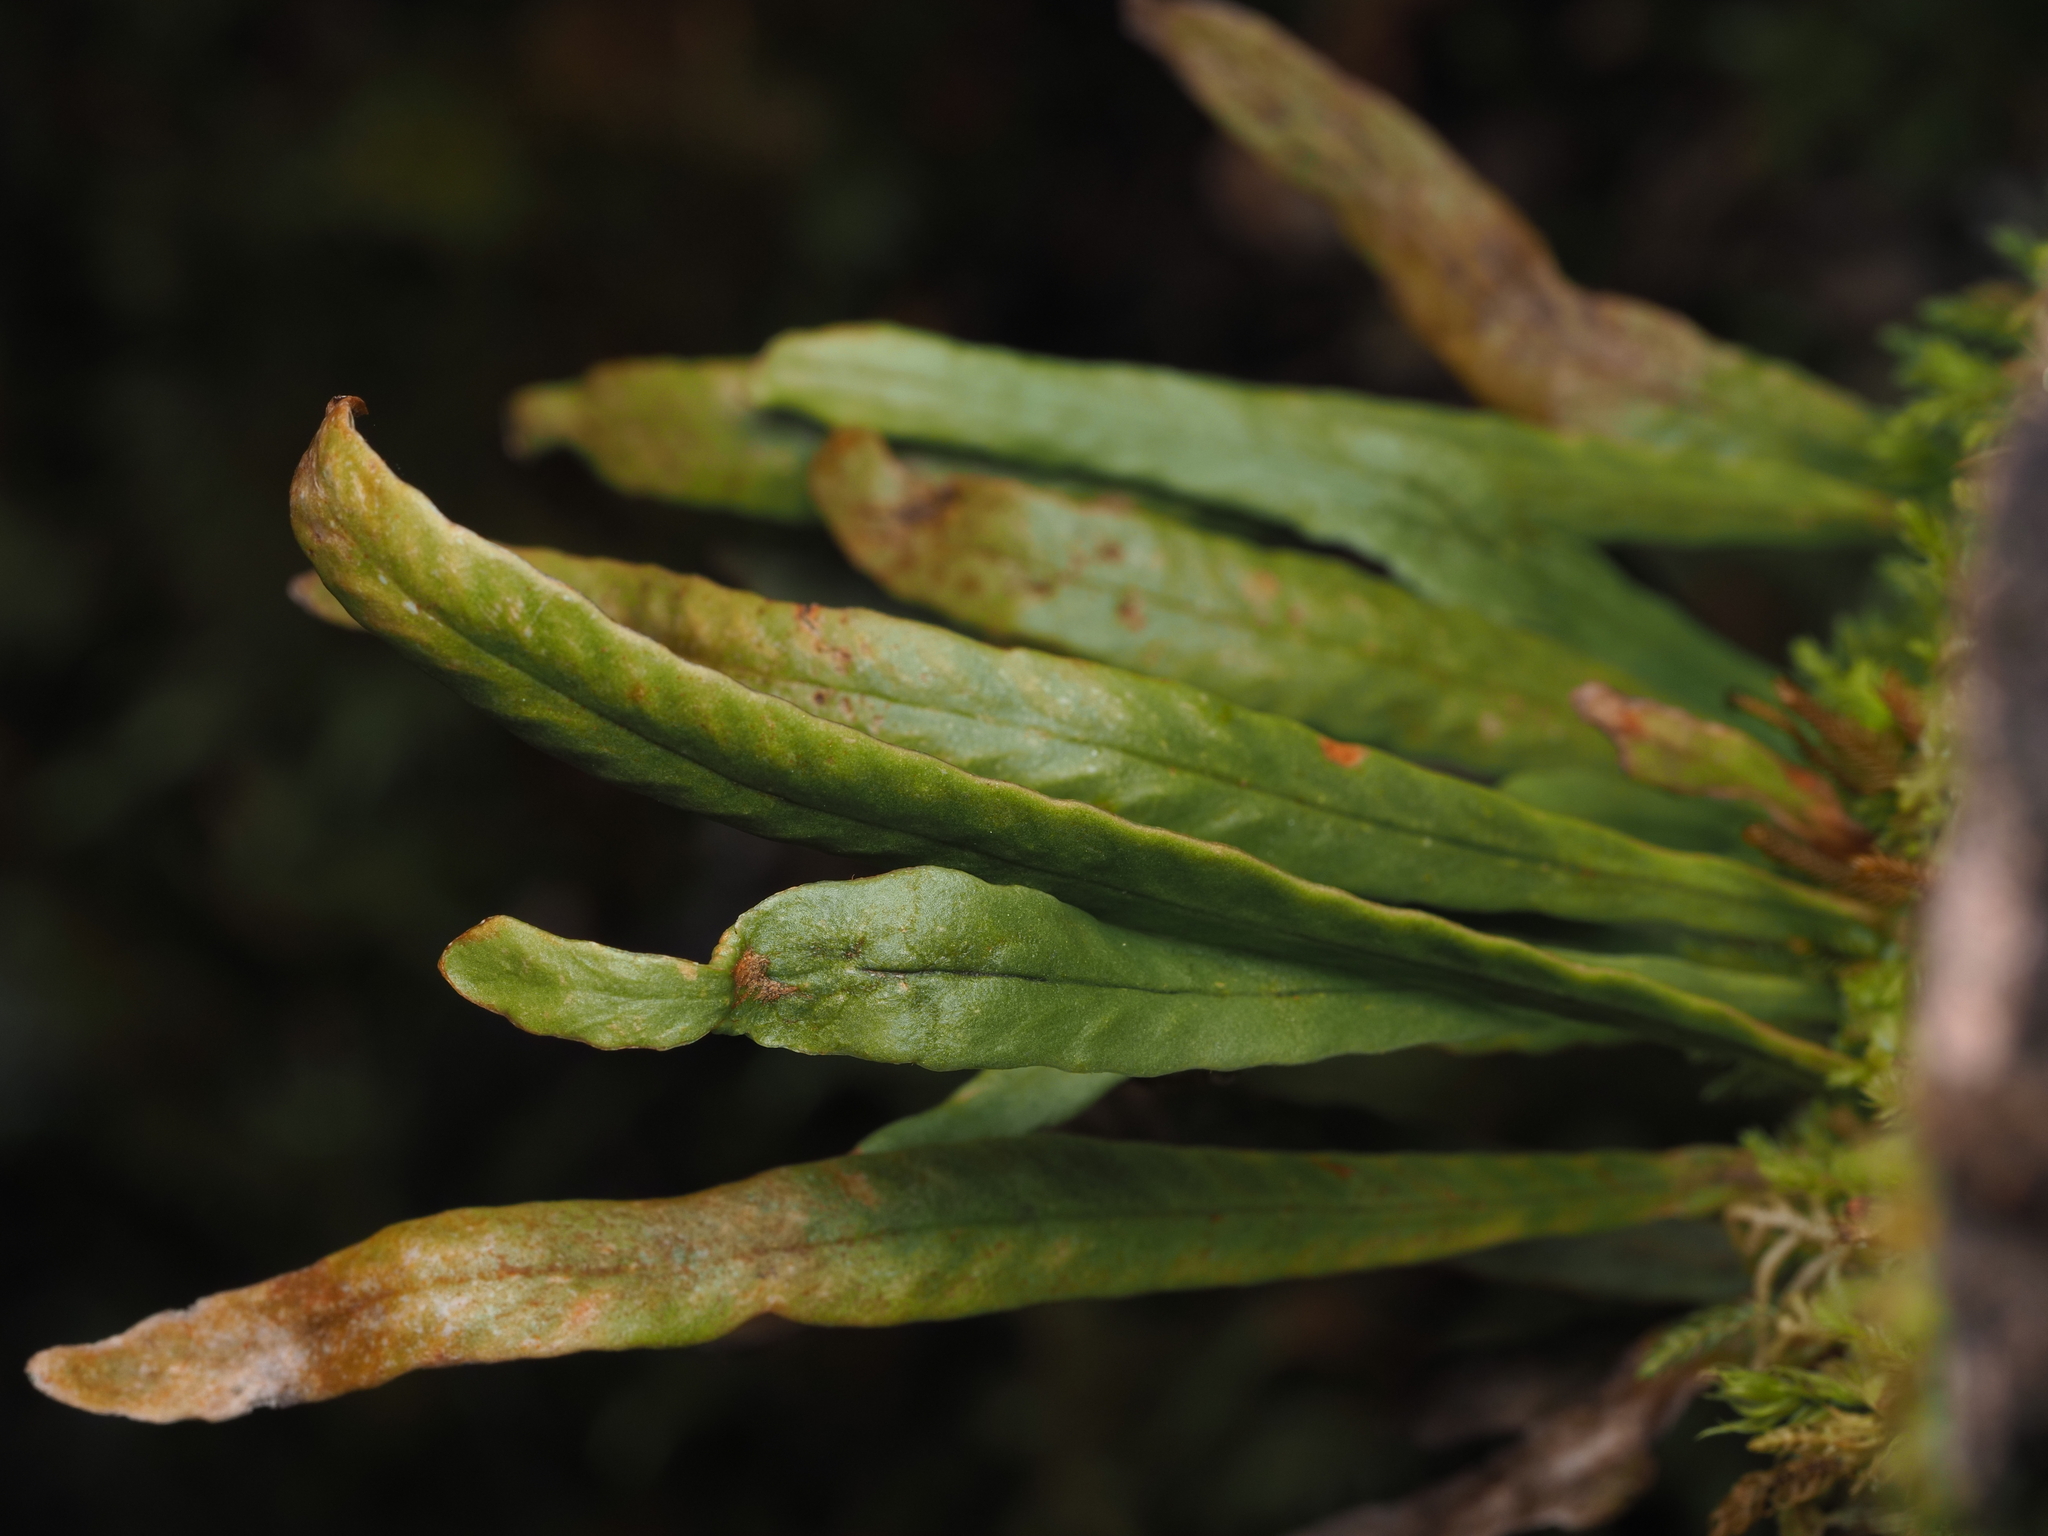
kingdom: Plantae
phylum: Tracheophyta
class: Polypodiopsida
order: Polypodiales
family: Polypodiaceae
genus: Notogrammitis
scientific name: Notogrammitis billardierei
